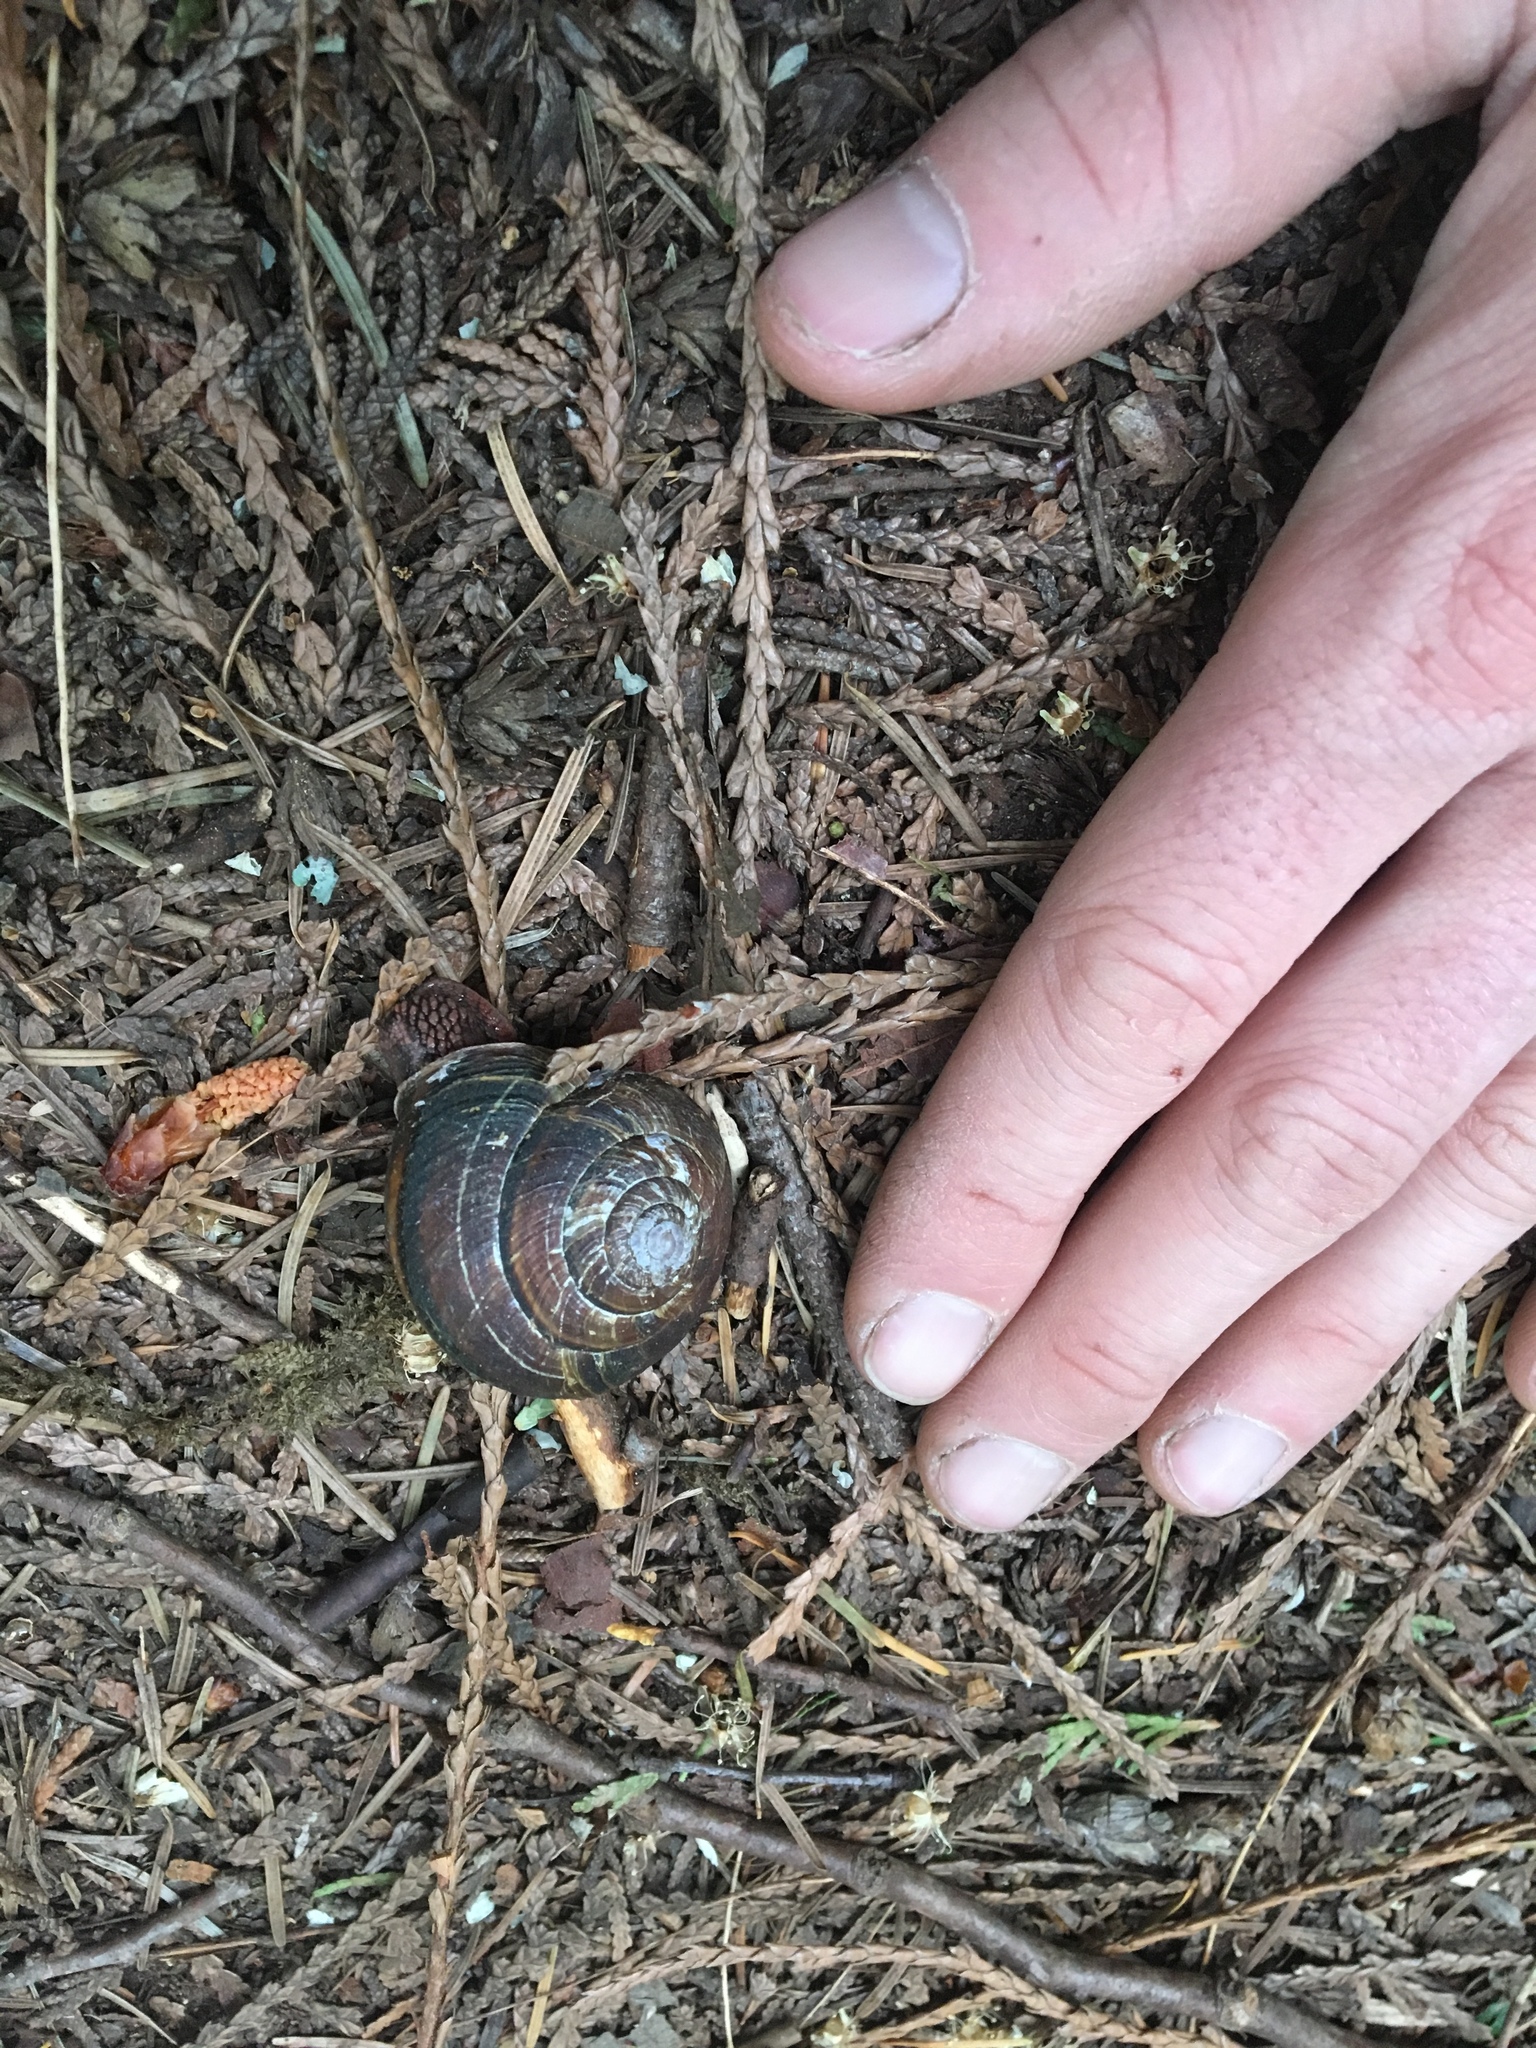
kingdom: Animalia
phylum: Mollusca
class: Gastropoda
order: Stylommatophora
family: Xanthonychidae
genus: Monadenia
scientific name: Monadenia fidelis
